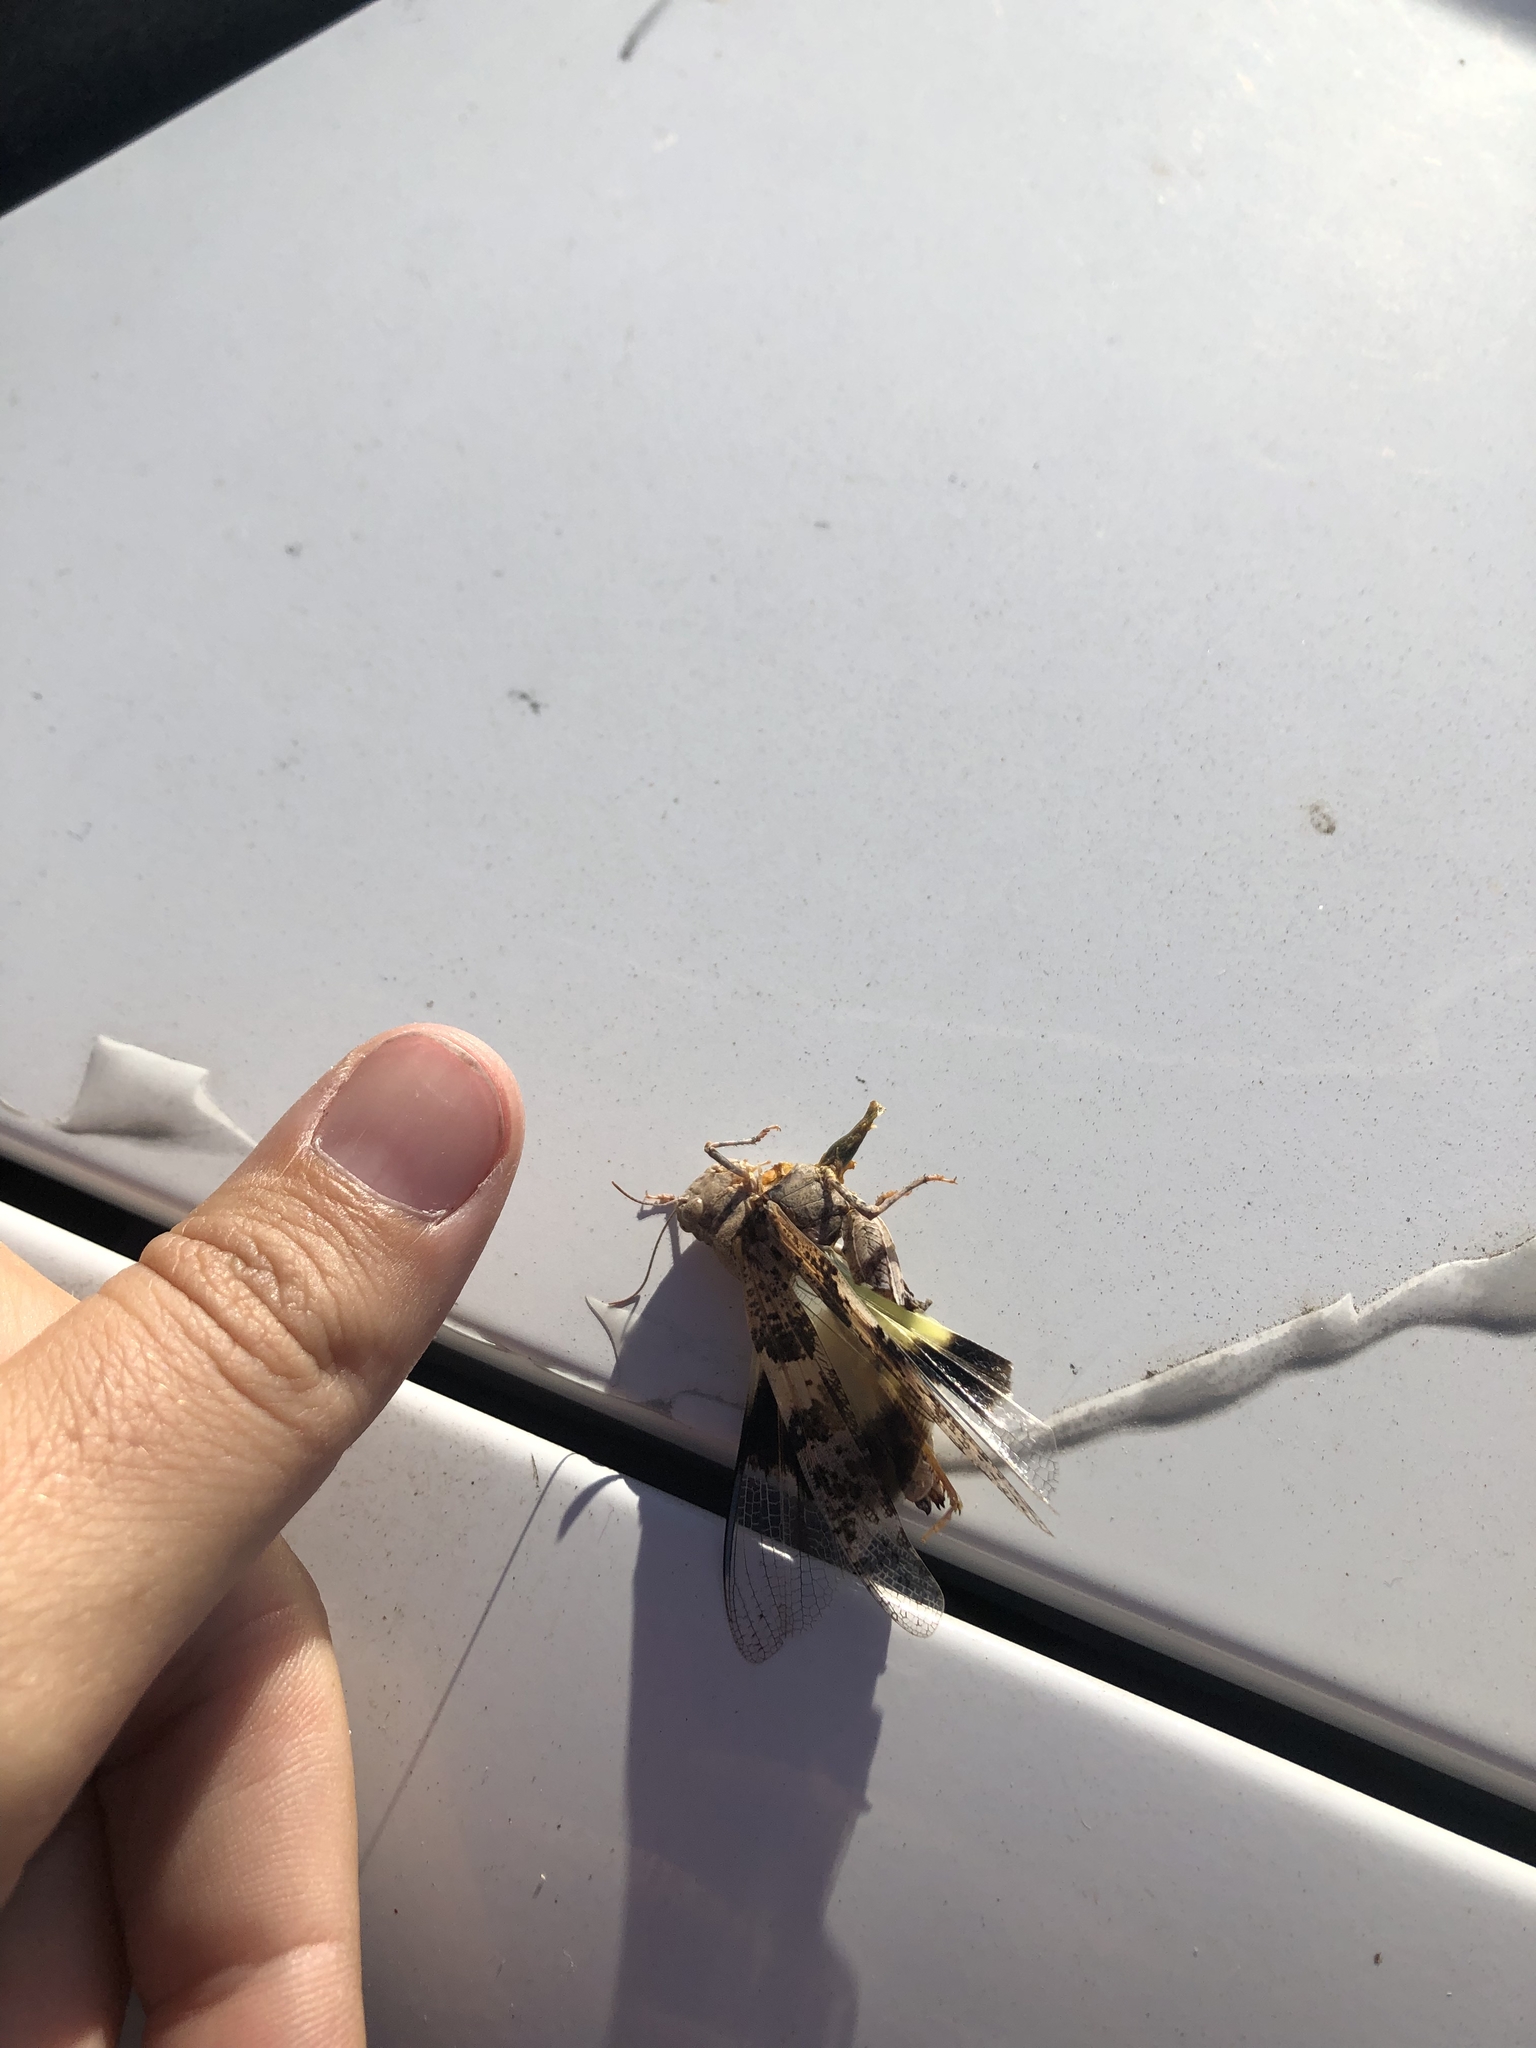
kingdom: Animalia
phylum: Arthropoda
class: Insecta
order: Orthoptera
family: Acrididae
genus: Trimerotropis
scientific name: Trimerotropis pallidipennis
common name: Pallid-winged grasshopper
